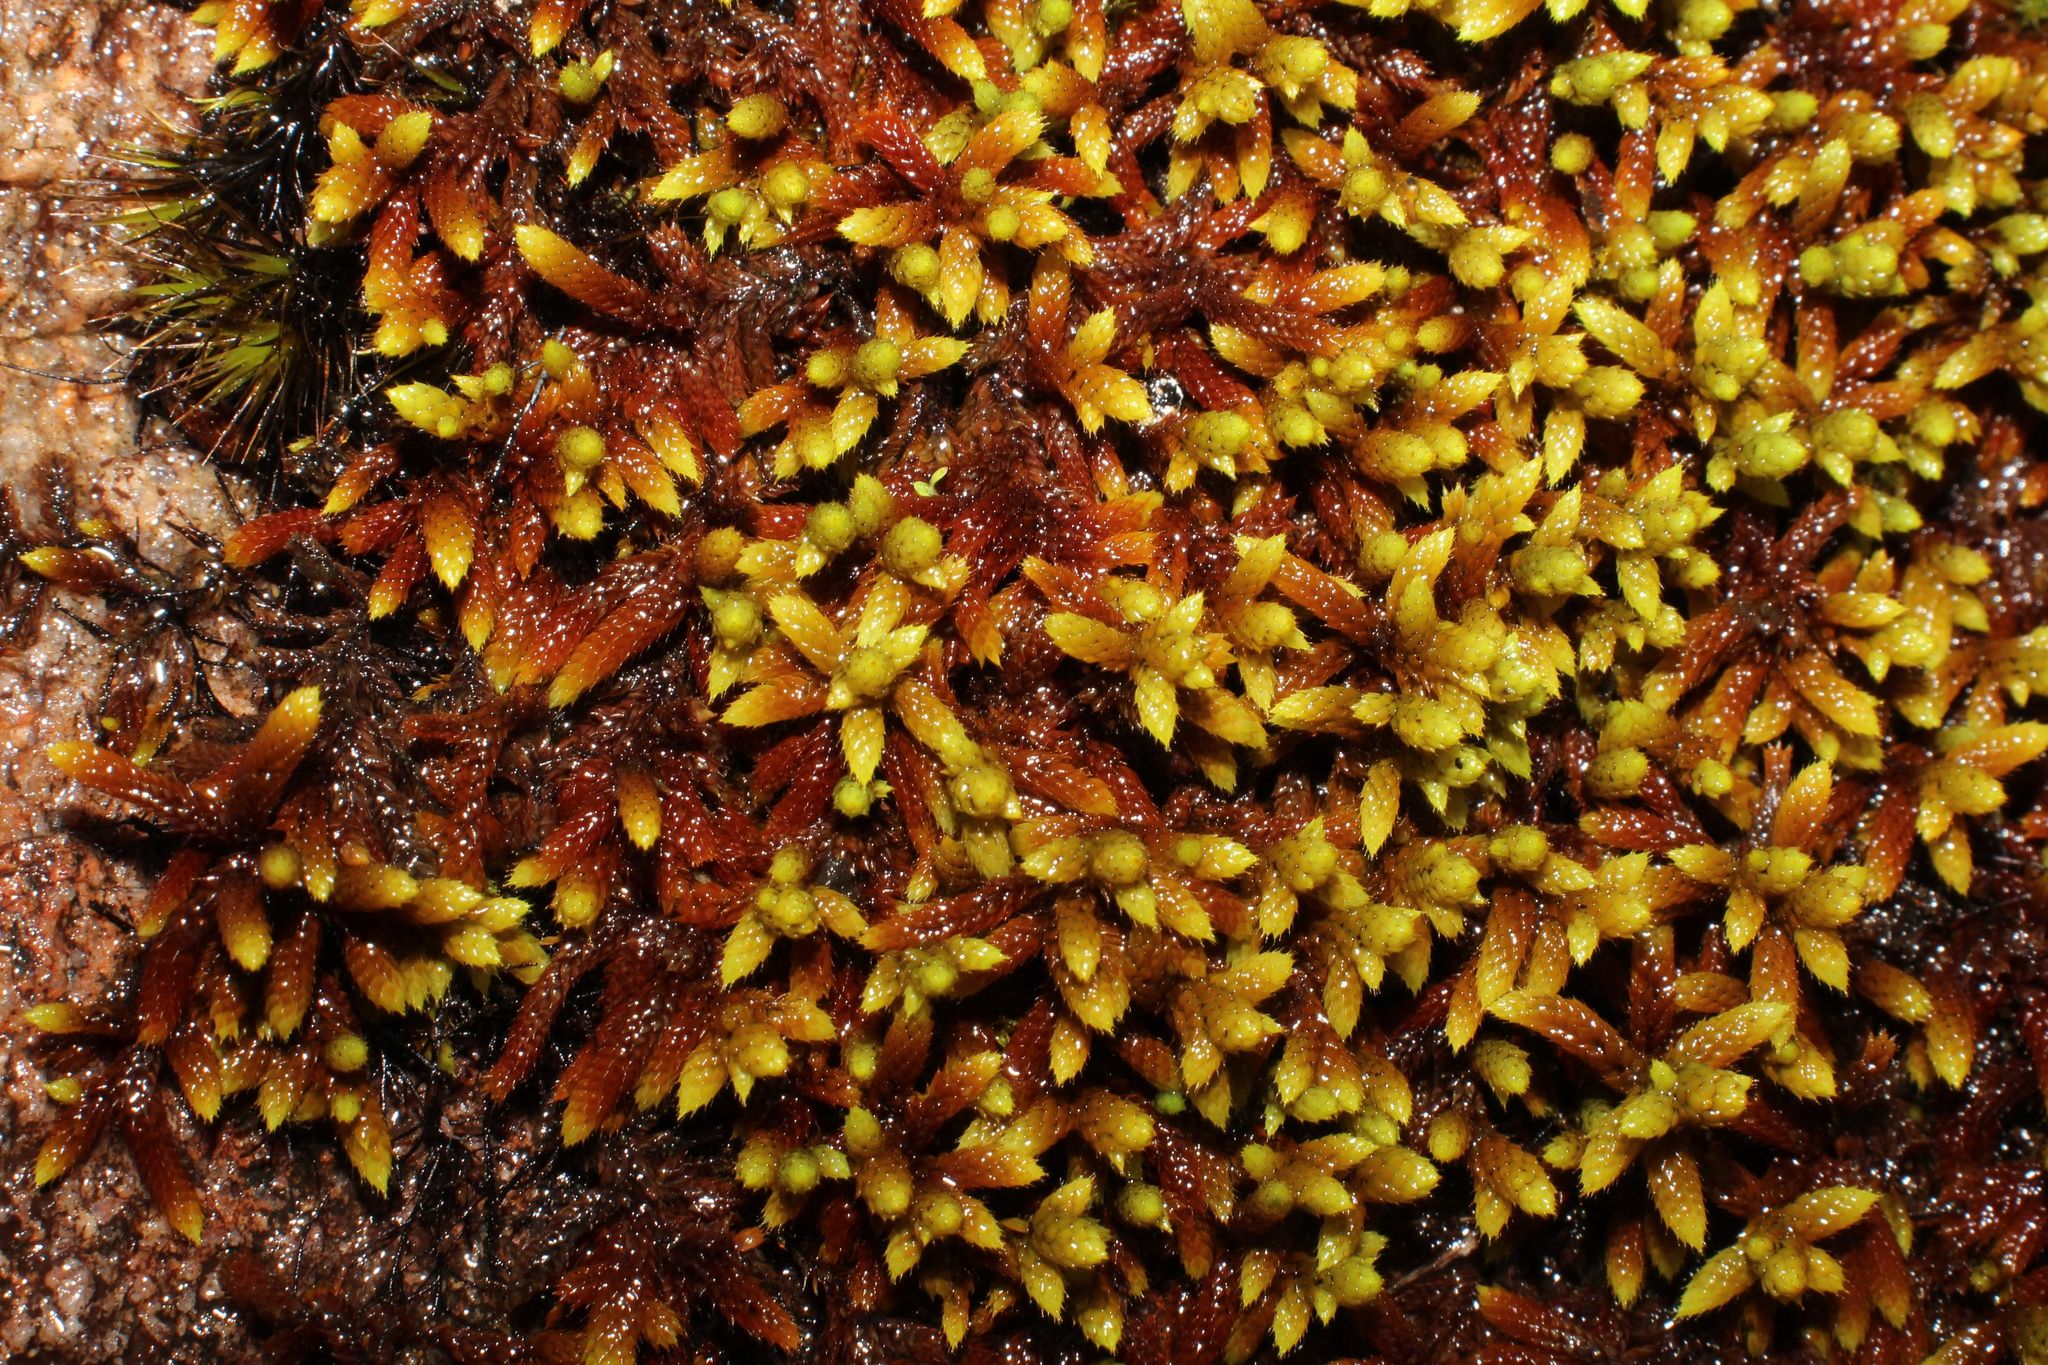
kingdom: Plantae
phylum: Bryophyta
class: Bryopsida
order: Hedwigiales
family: Hedwigiaceae
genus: Rhacocarpus
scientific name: Rhacocarpus purpurascens
